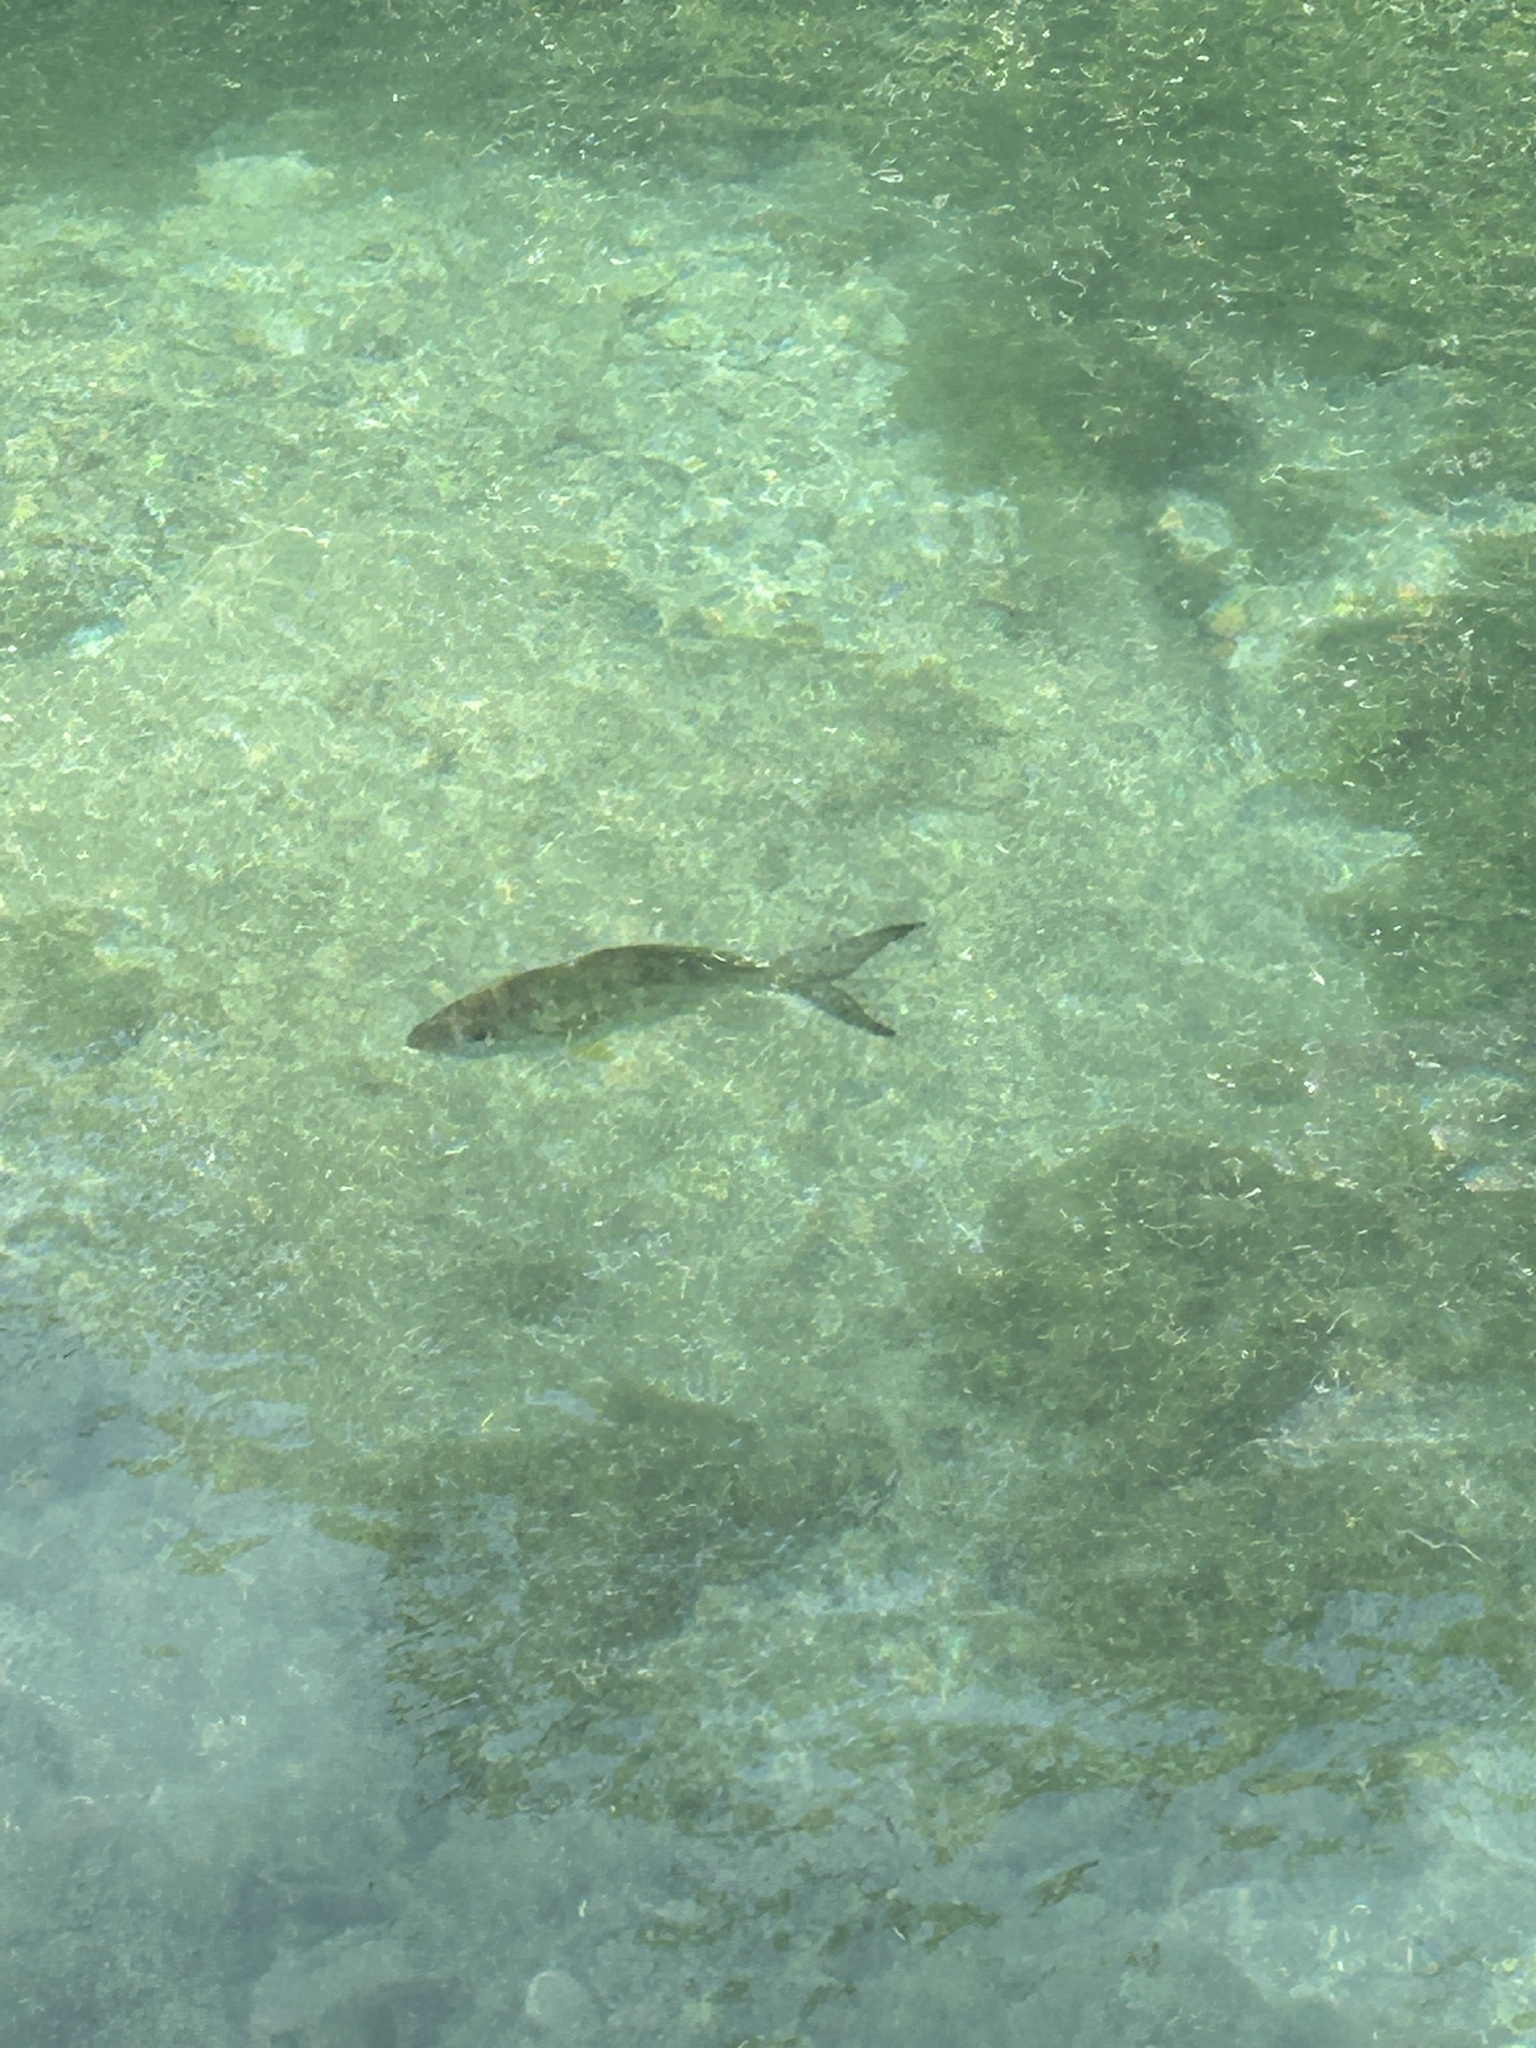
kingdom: Animalia
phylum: Chordata
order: Perciformes
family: Gerreidae
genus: Gerres
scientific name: Gerres cinereus
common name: Hedow
